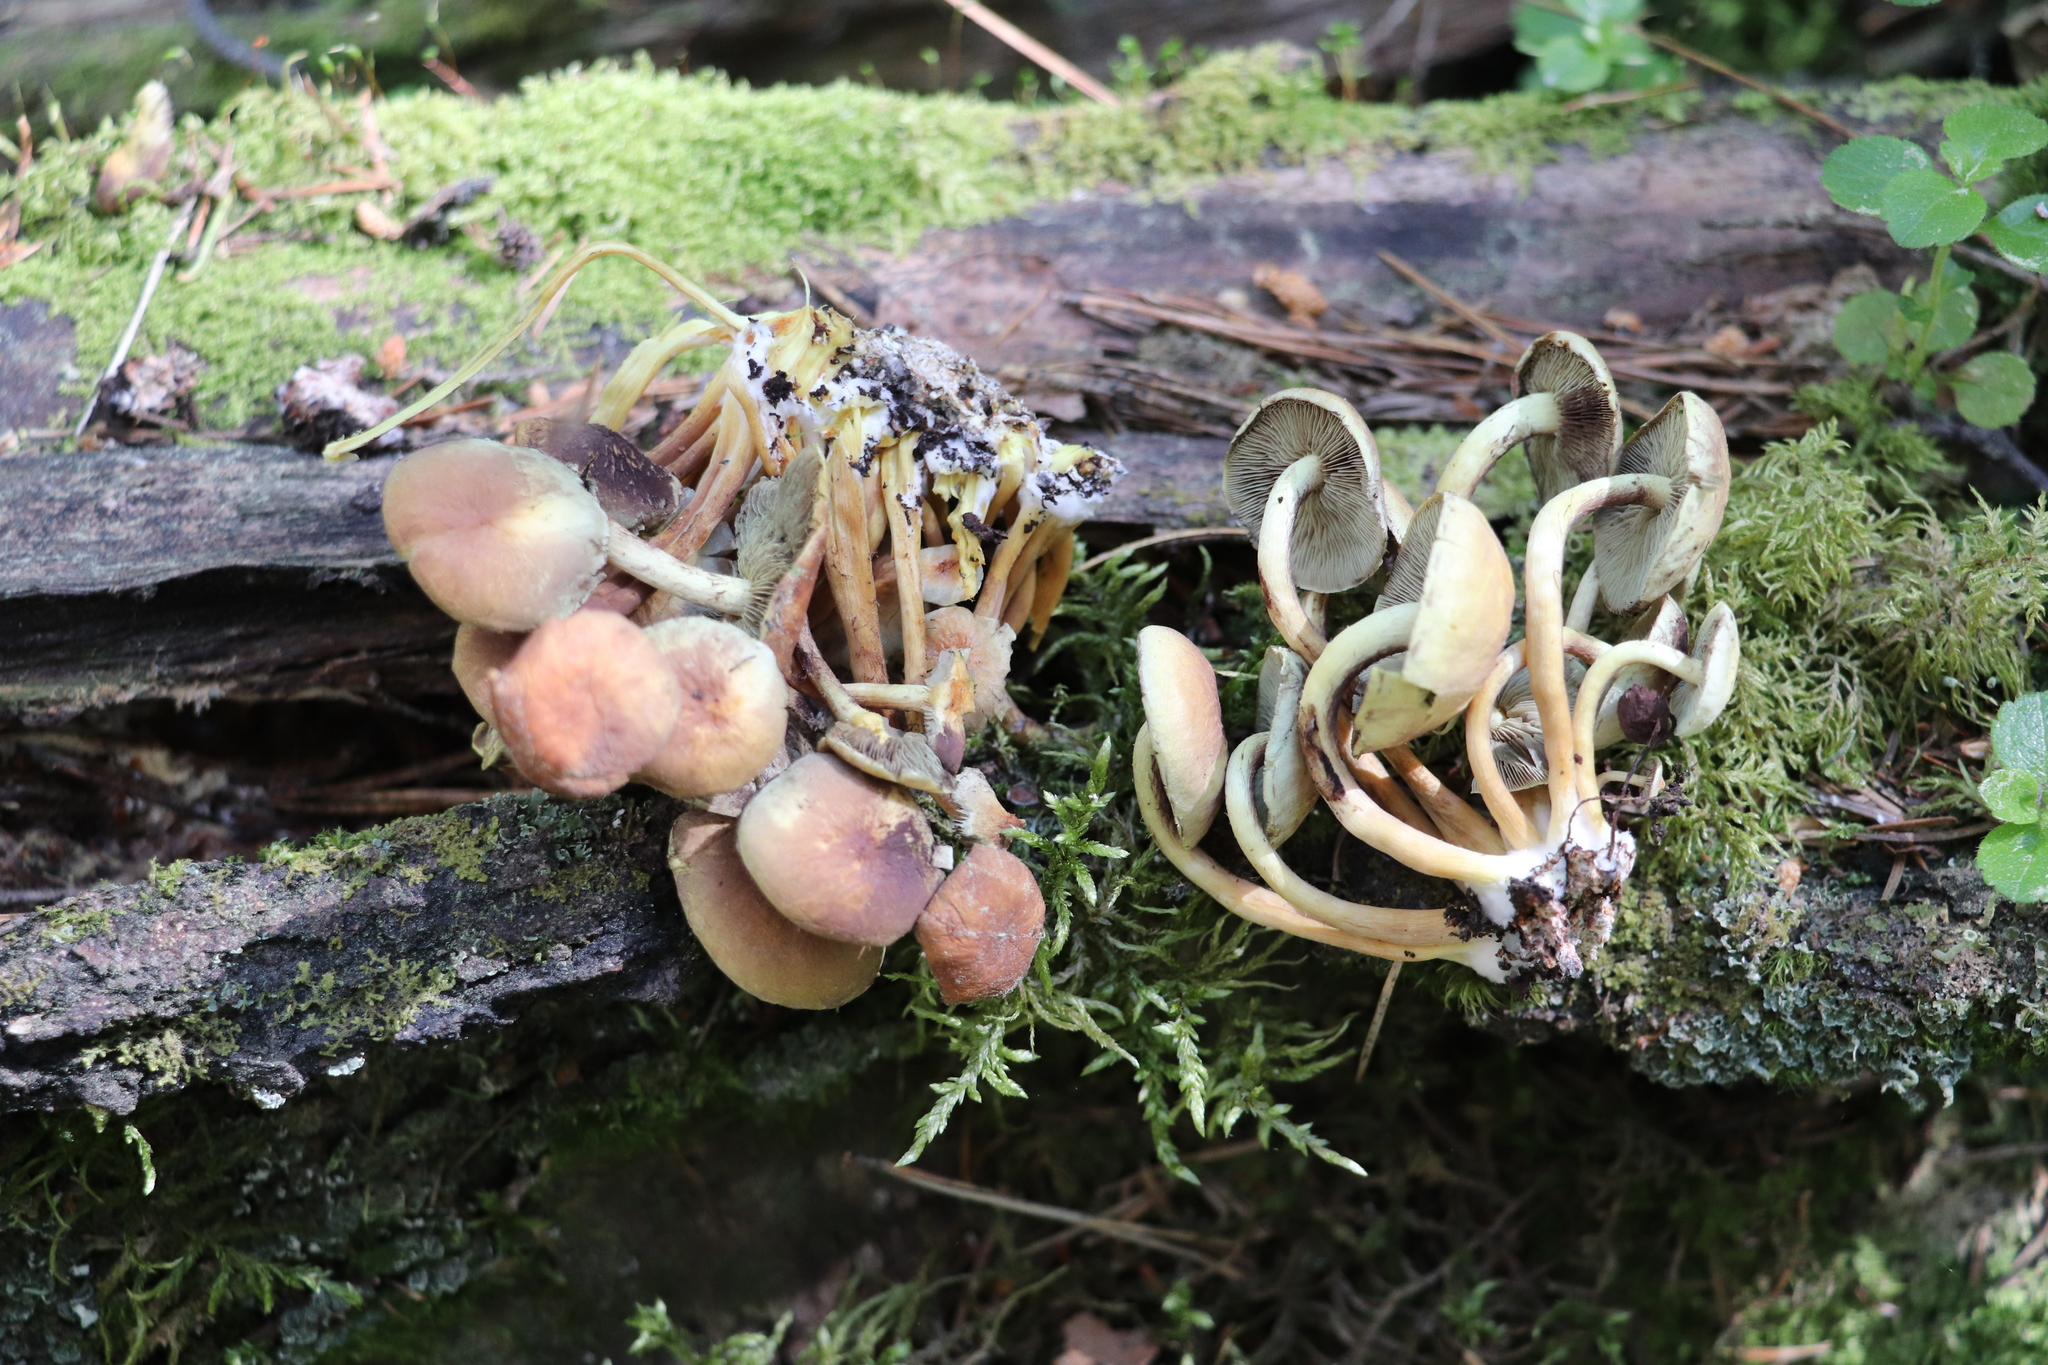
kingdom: Fungi
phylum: Basidiomycota
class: Agaricomycetes
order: Agaricales
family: Strophariaceae
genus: Hypholoma
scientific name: Hypholoma fasciculare
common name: Sulphur tuft
